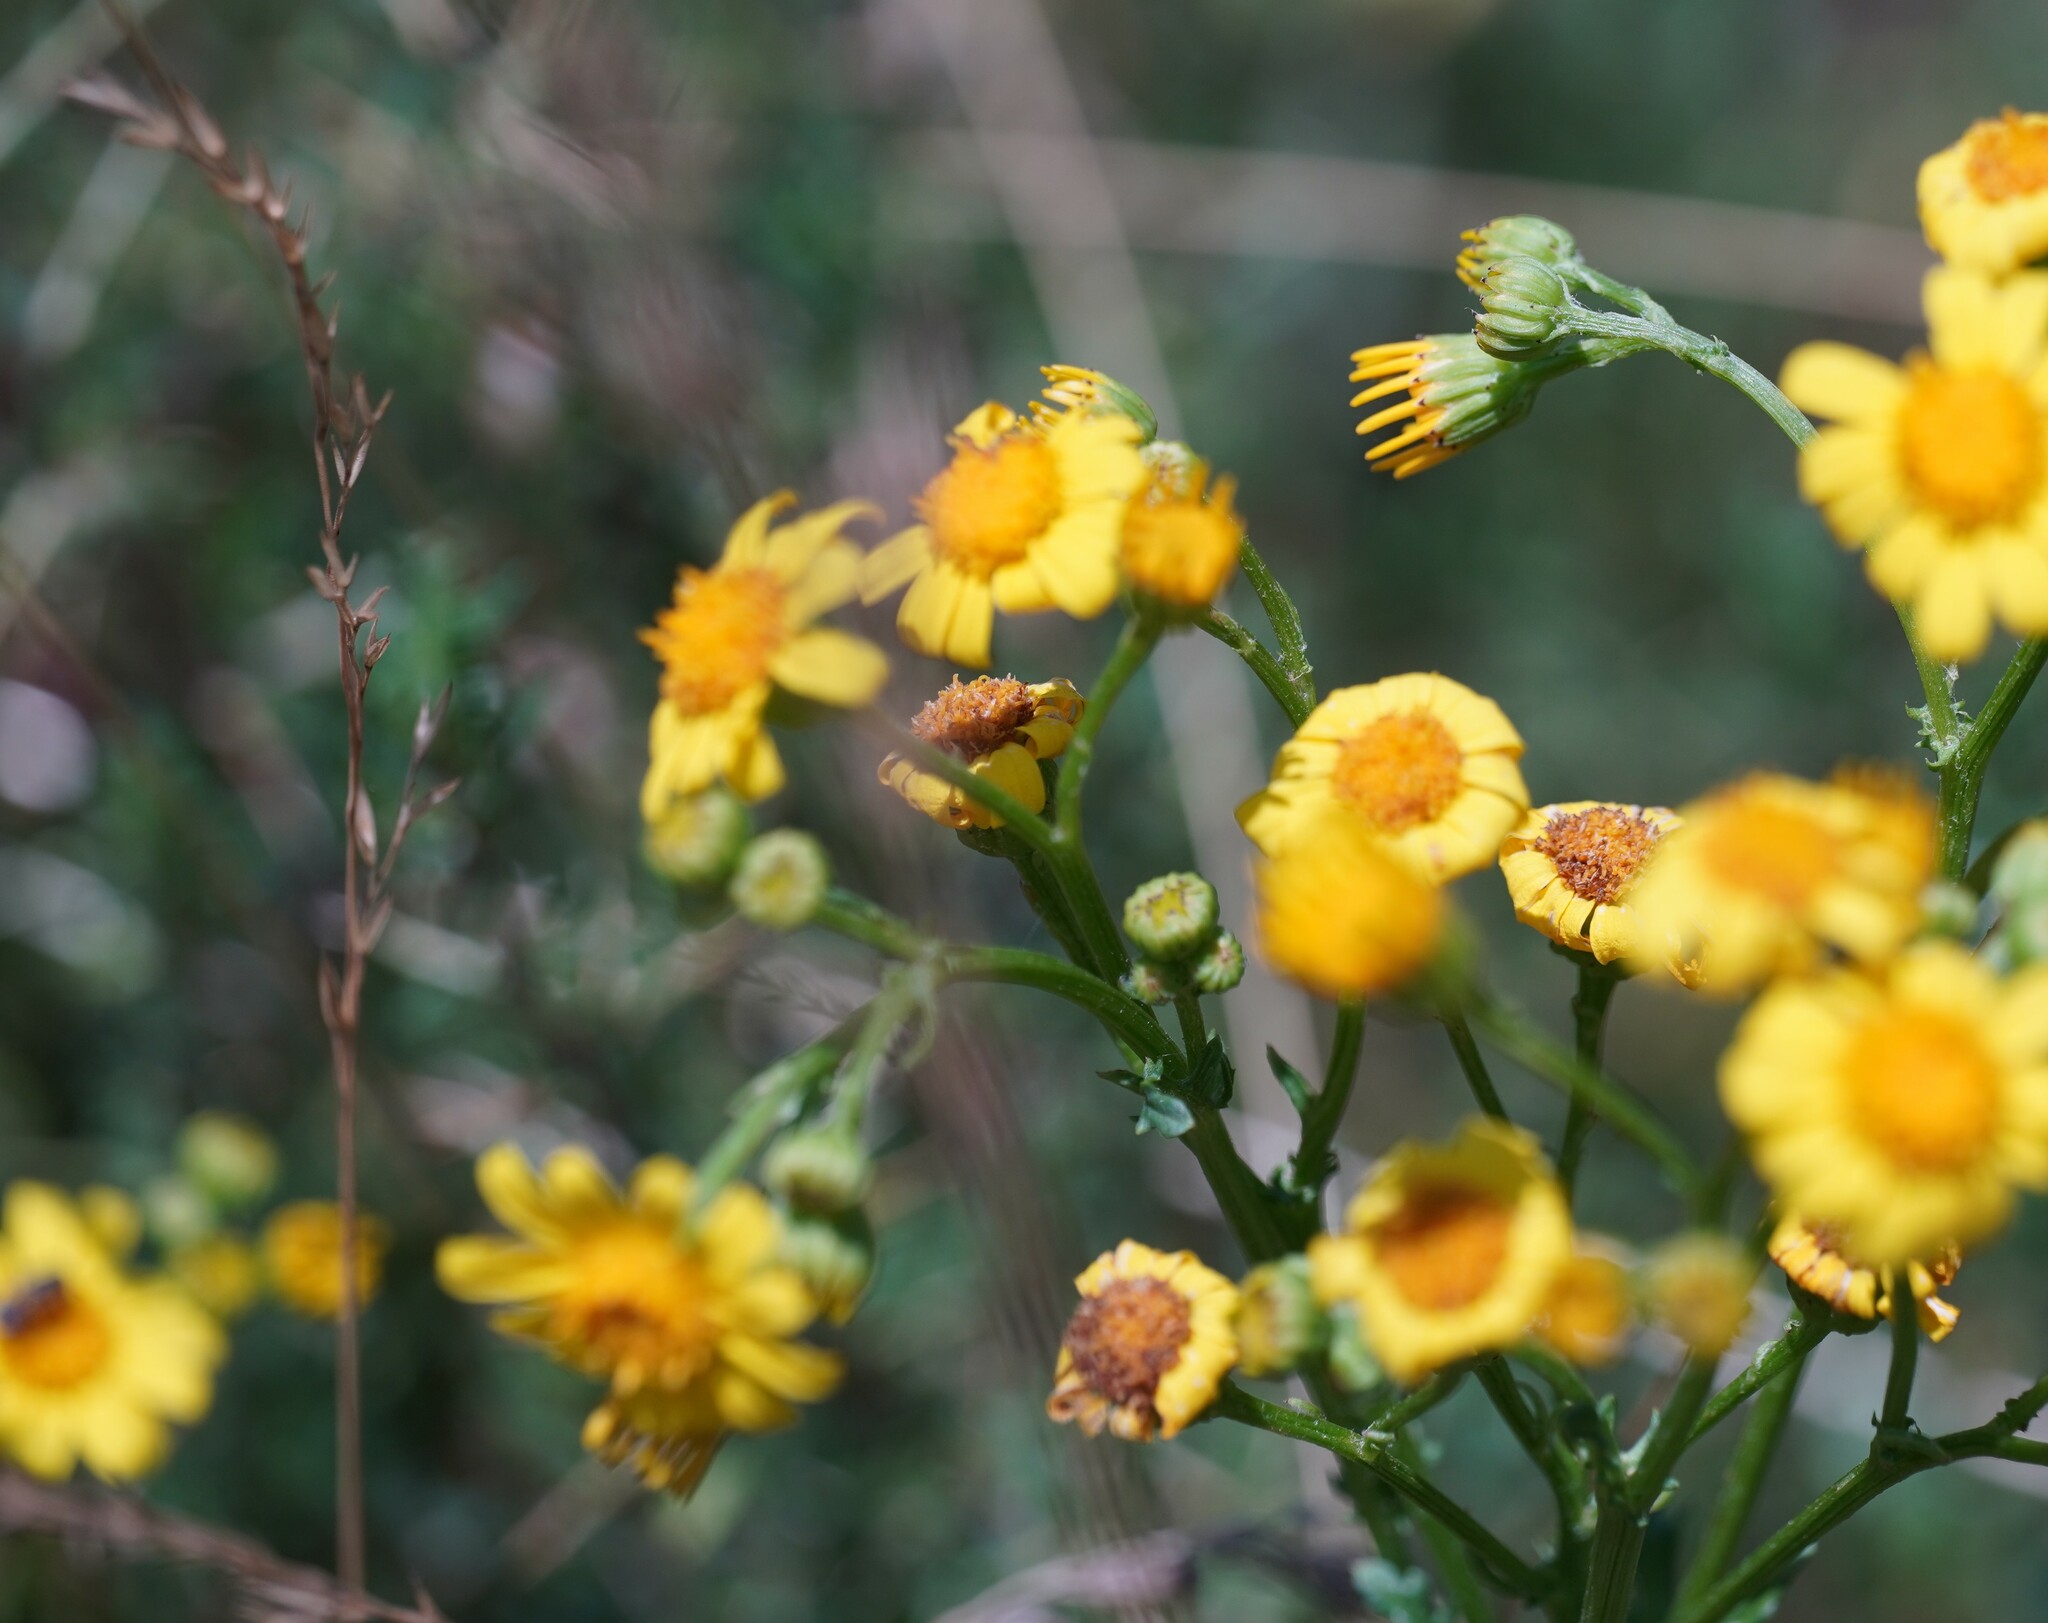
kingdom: Plantae
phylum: Tracheophyta
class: Magnoliopsida
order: Asterales
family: Asteraceae
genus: Jacobaea
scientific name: Jacobaea vulgaris
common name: Stinking willie
